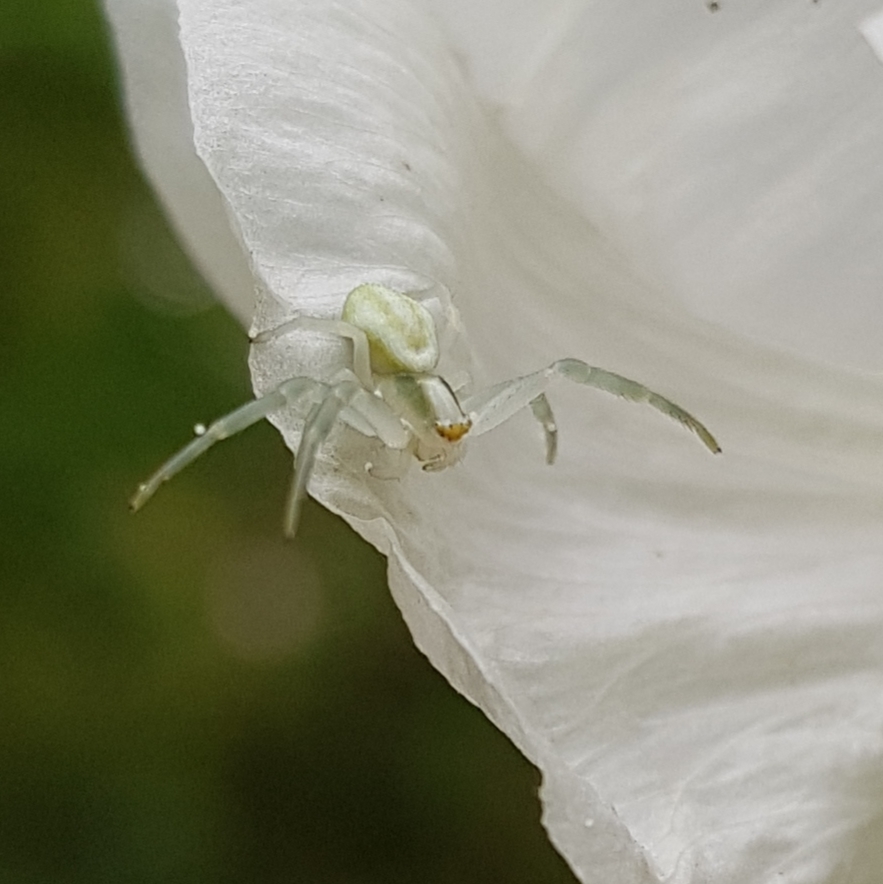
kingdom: Animalia
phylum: Arthropoda
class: Arachnida
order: Araneae
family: Thomisidae
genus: Misumena
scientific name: Misumena vatia
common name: Goldenrod crab spider
